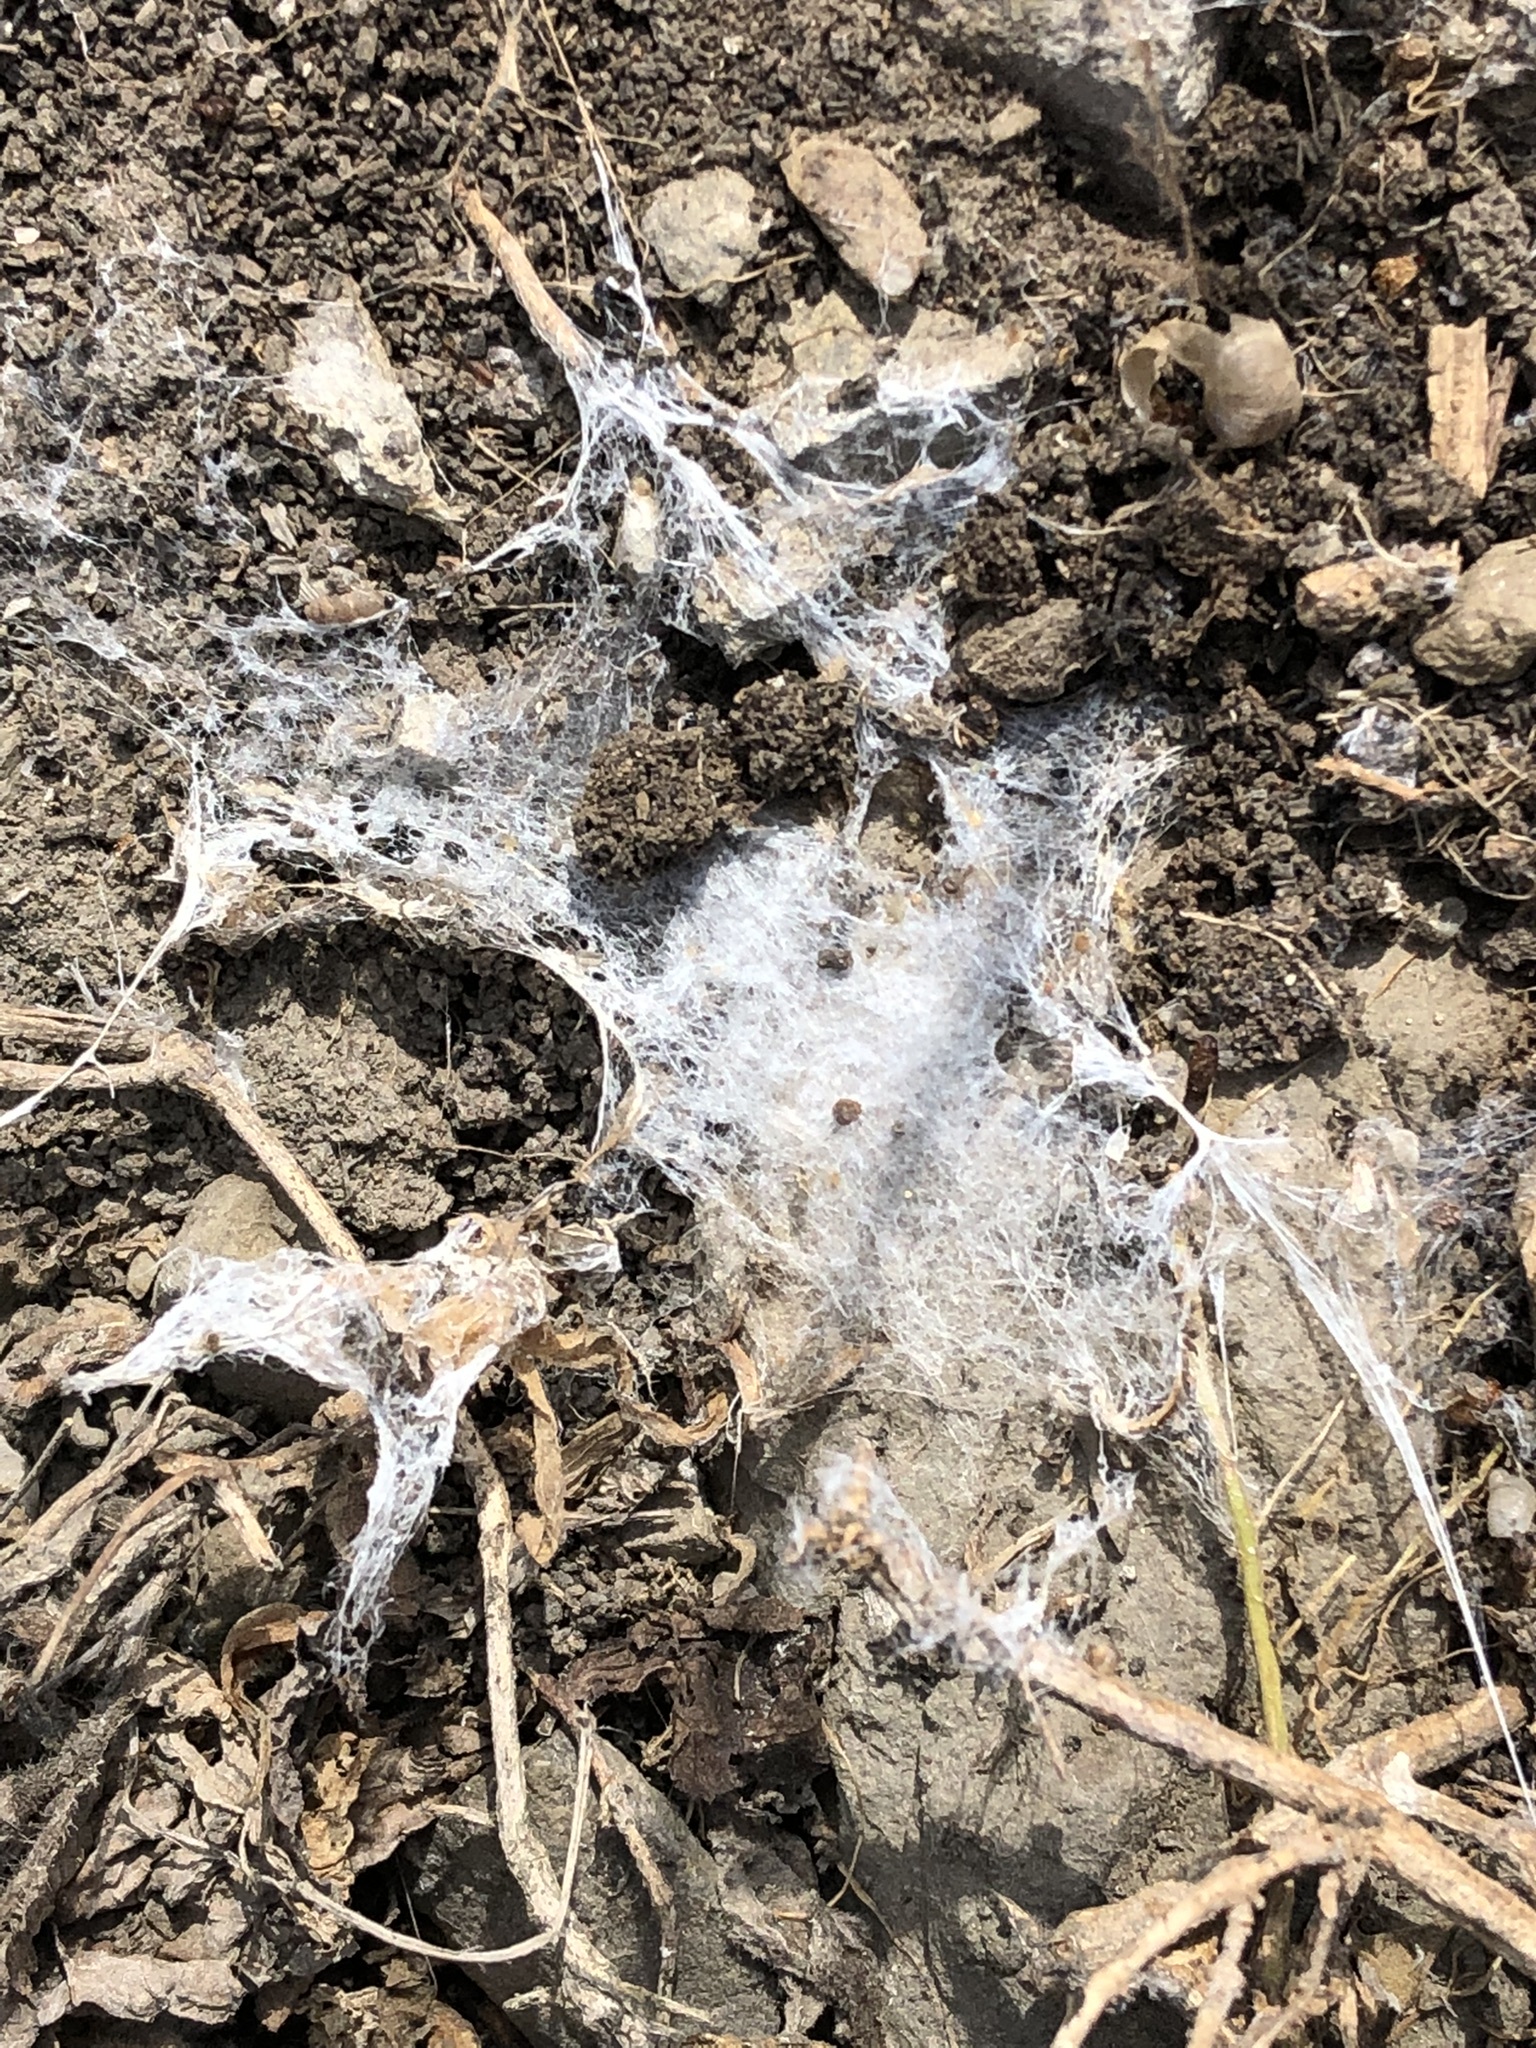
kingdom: Animalia
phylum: Arthropoda
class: Arachnida
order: Araneae
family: Dysderidae
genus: Dysdera
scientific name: Dysdera crocata
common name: Woodlouse spider
